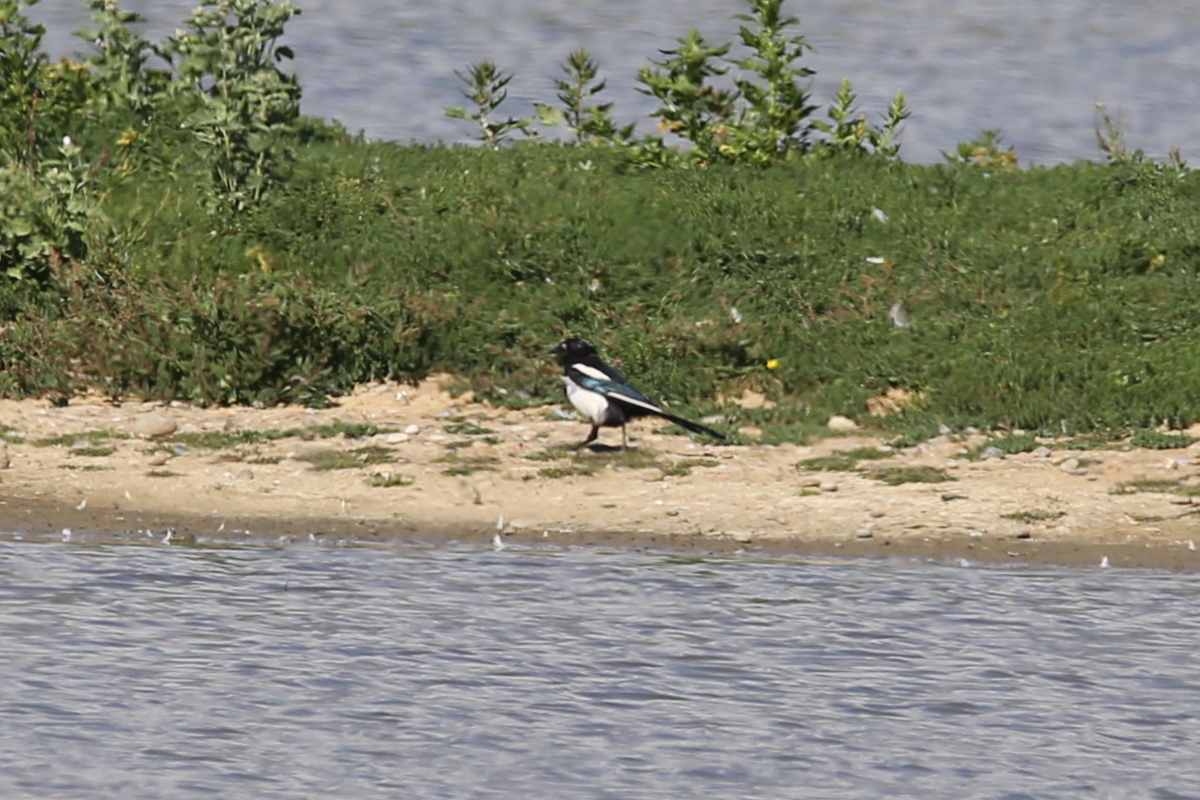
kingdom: Animalia
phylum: Chordata
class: Aves
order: Passeriformes
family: Corvidae
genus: Pica
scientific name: Pica pica
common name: Eurasian magpie
